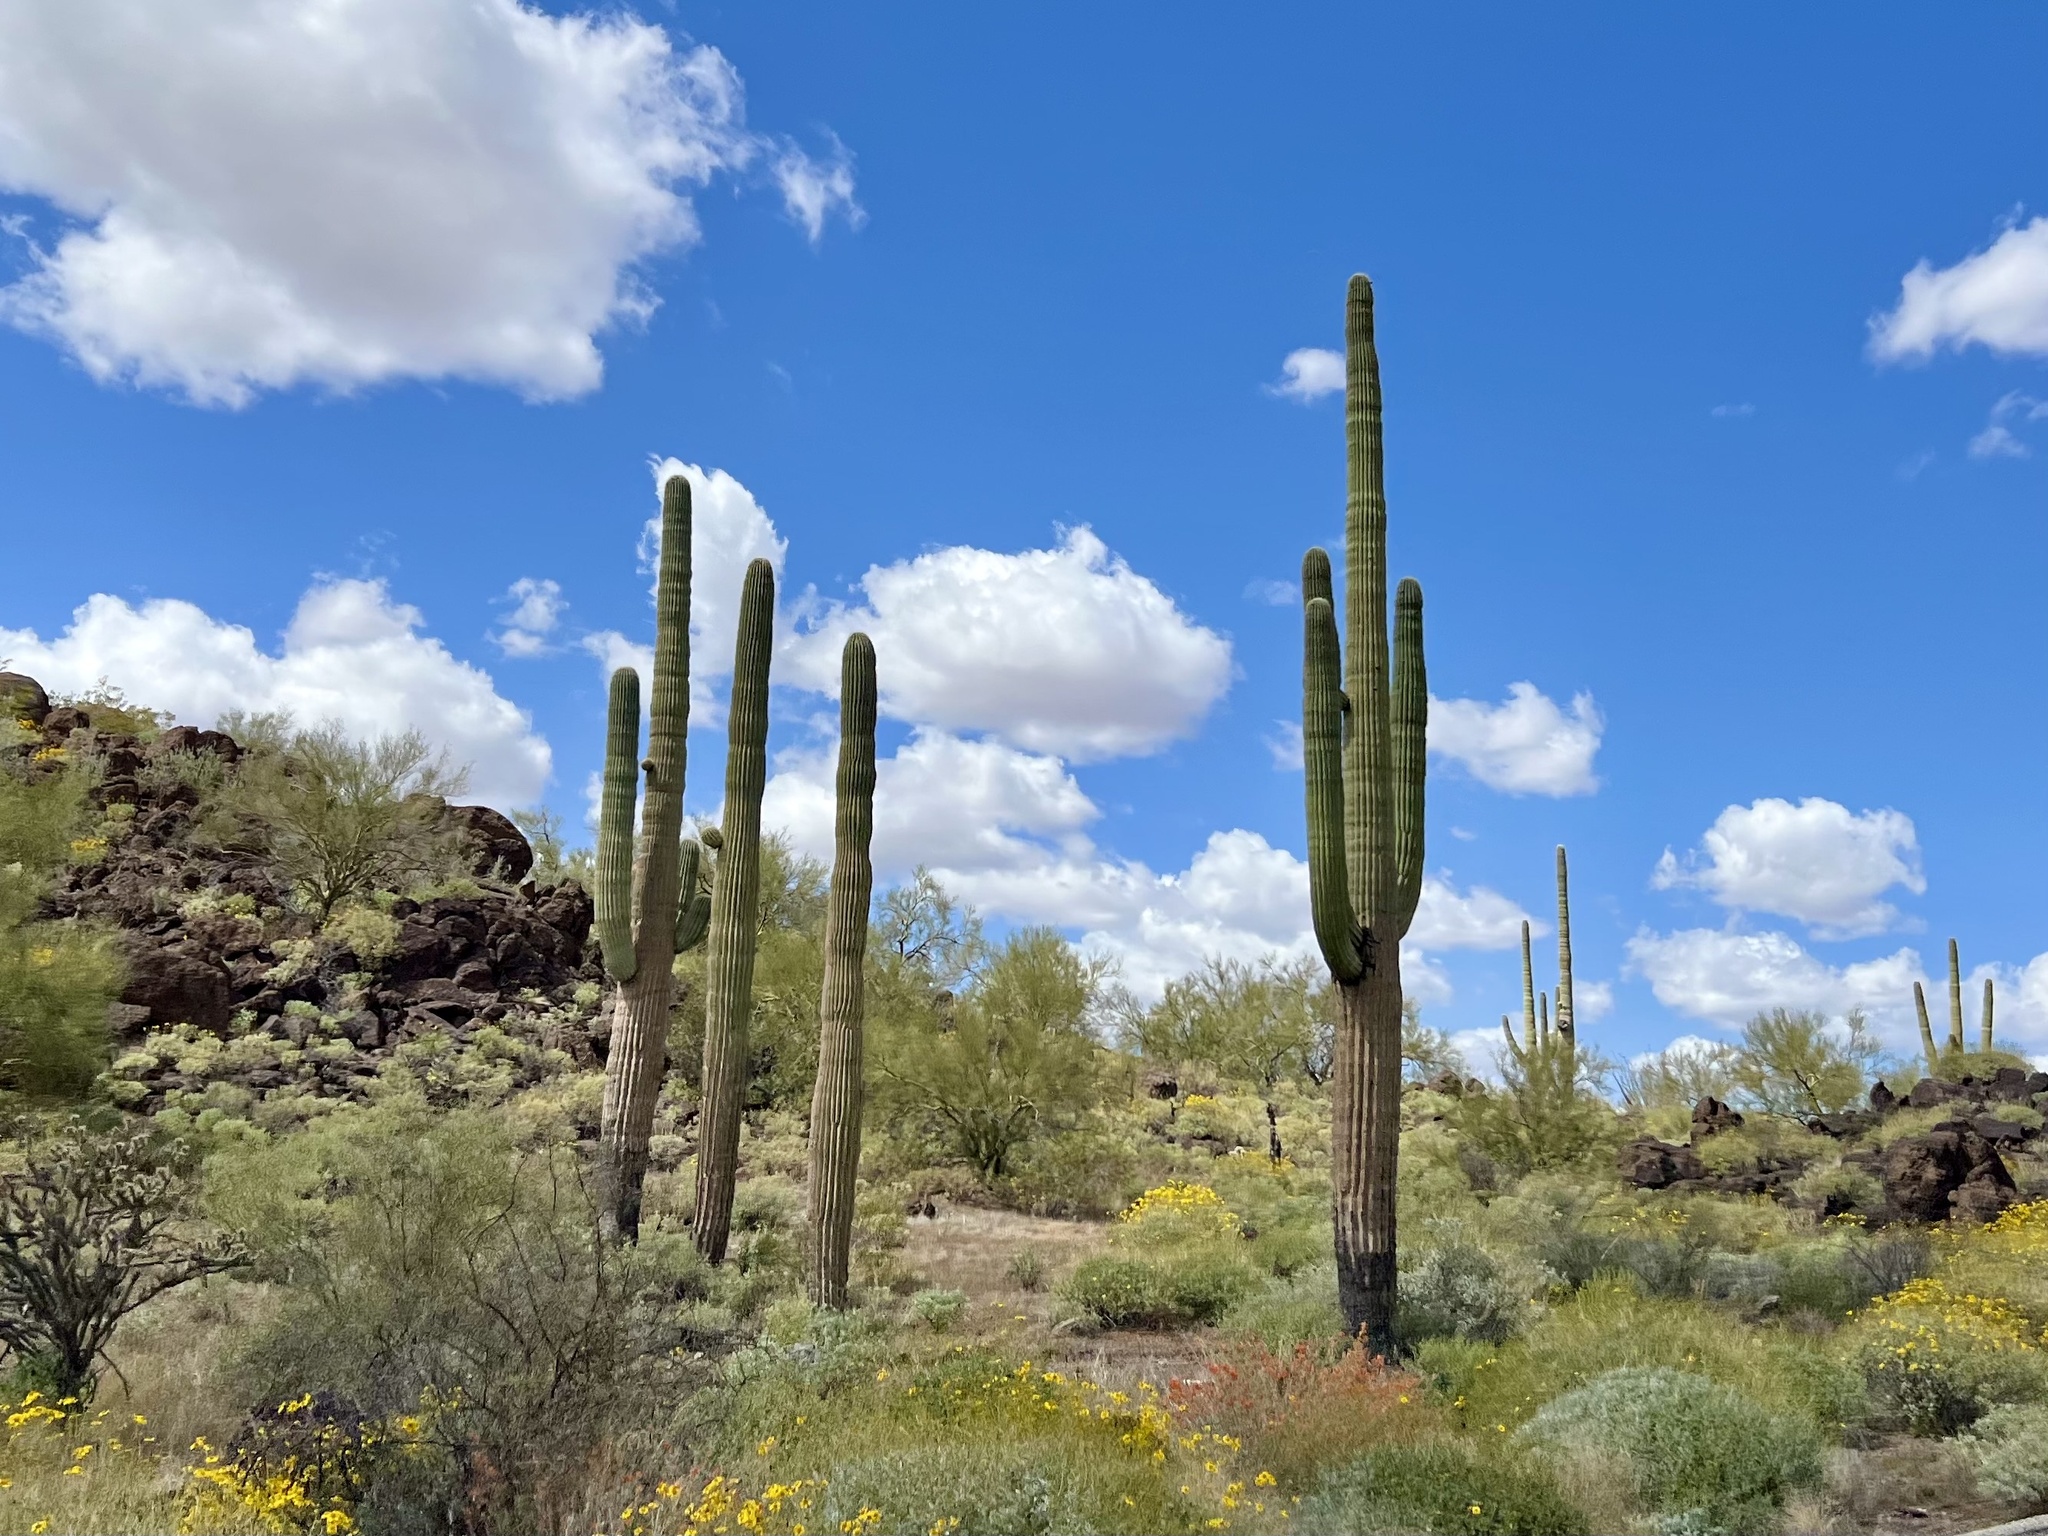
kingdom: Plantae
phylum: Tracheophyta
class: Magnoliopsida
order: Caryophyllales
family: Cactaceae
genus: Carnegiea
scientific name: Carnegiea gigantea
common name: Saguaro
